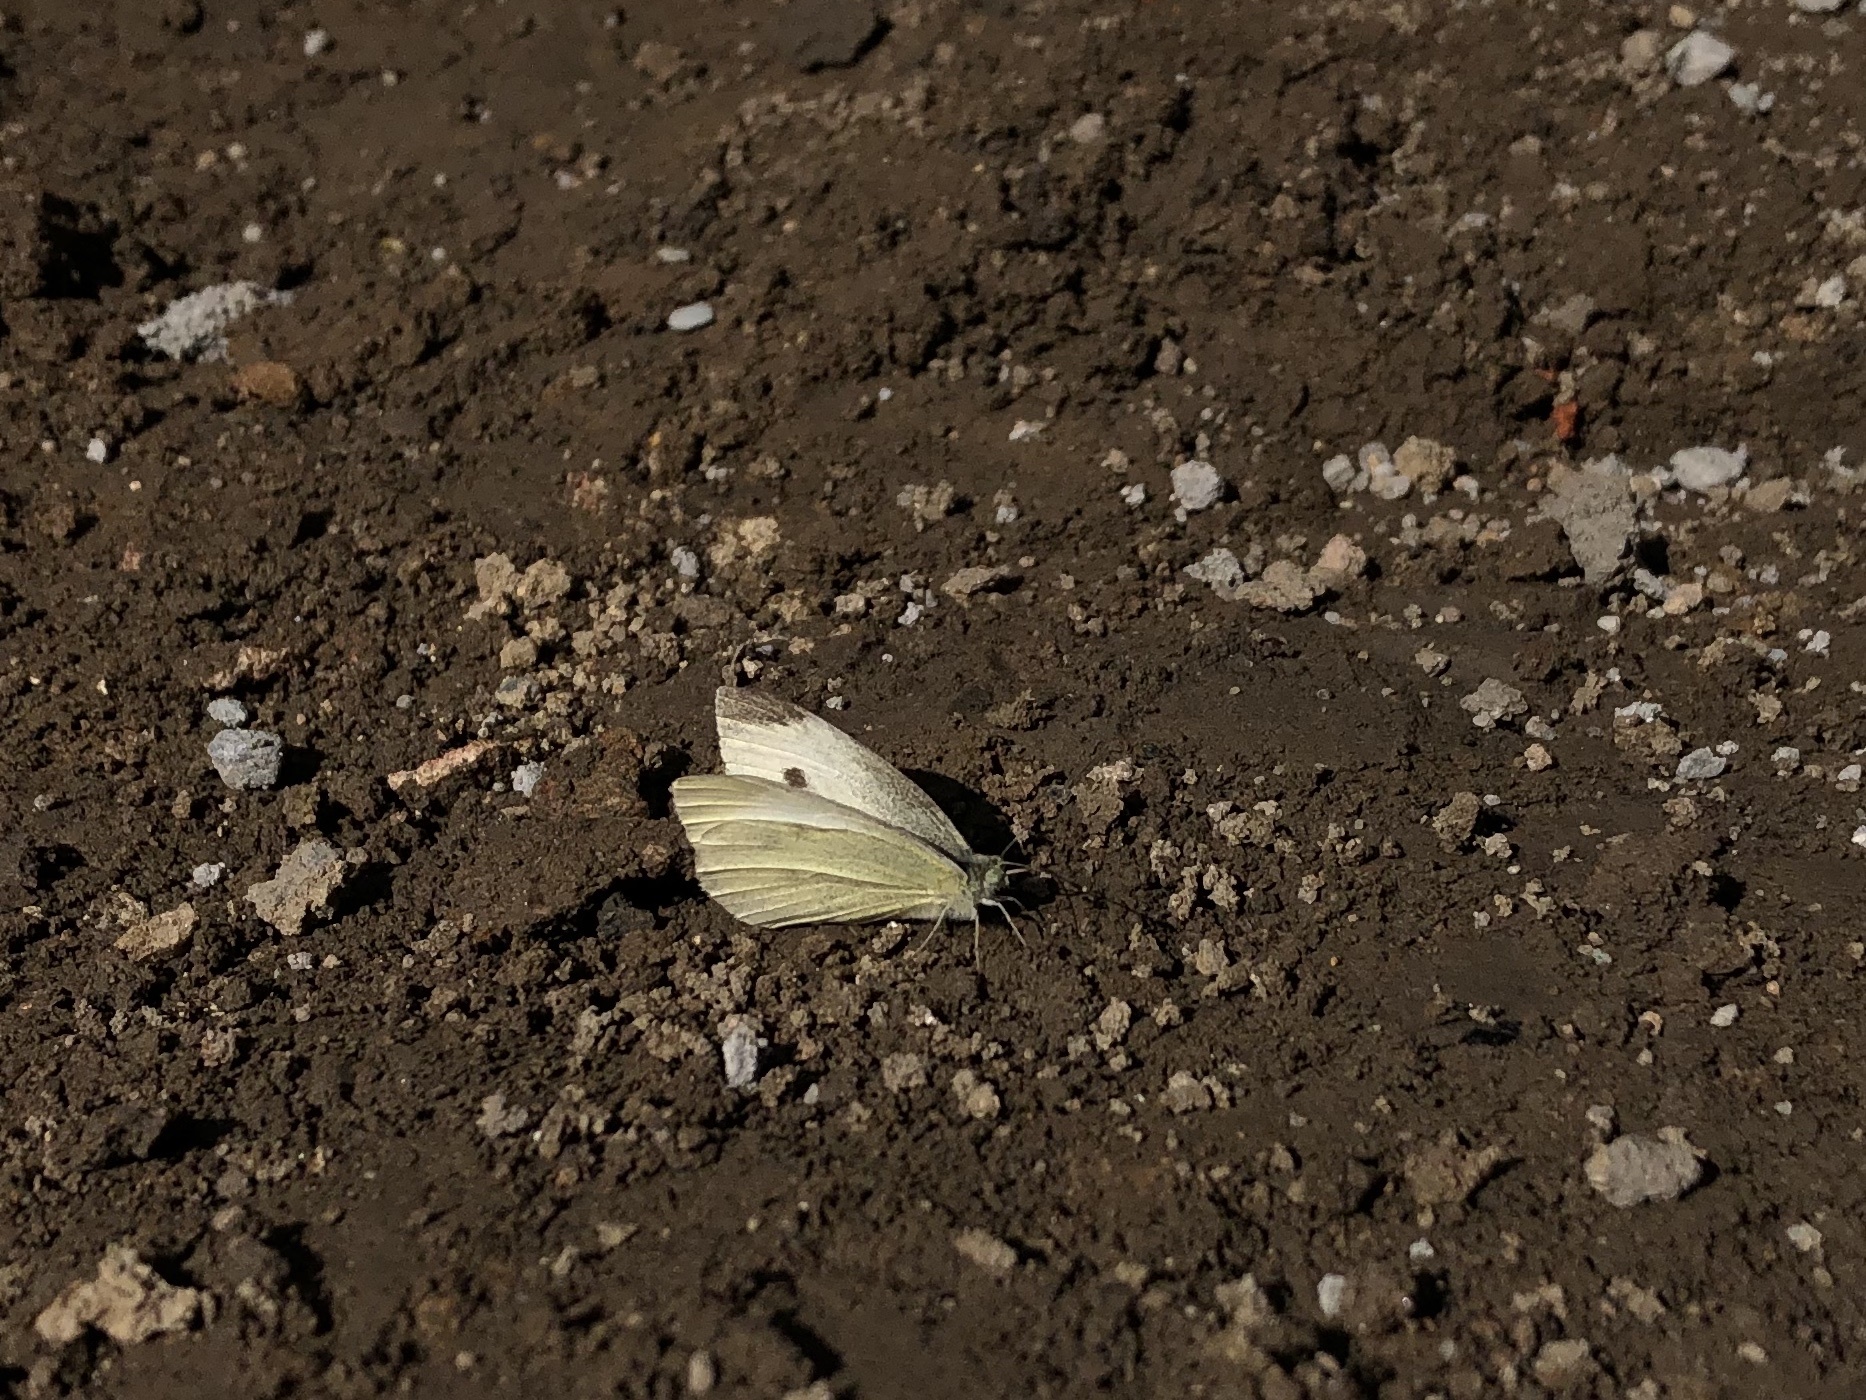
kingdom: Animalia
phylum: Arthropoda
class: Insecta
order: Lepidoptera
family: Pieridae
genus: Pieris
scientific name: Pieris rapae
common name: Small white
